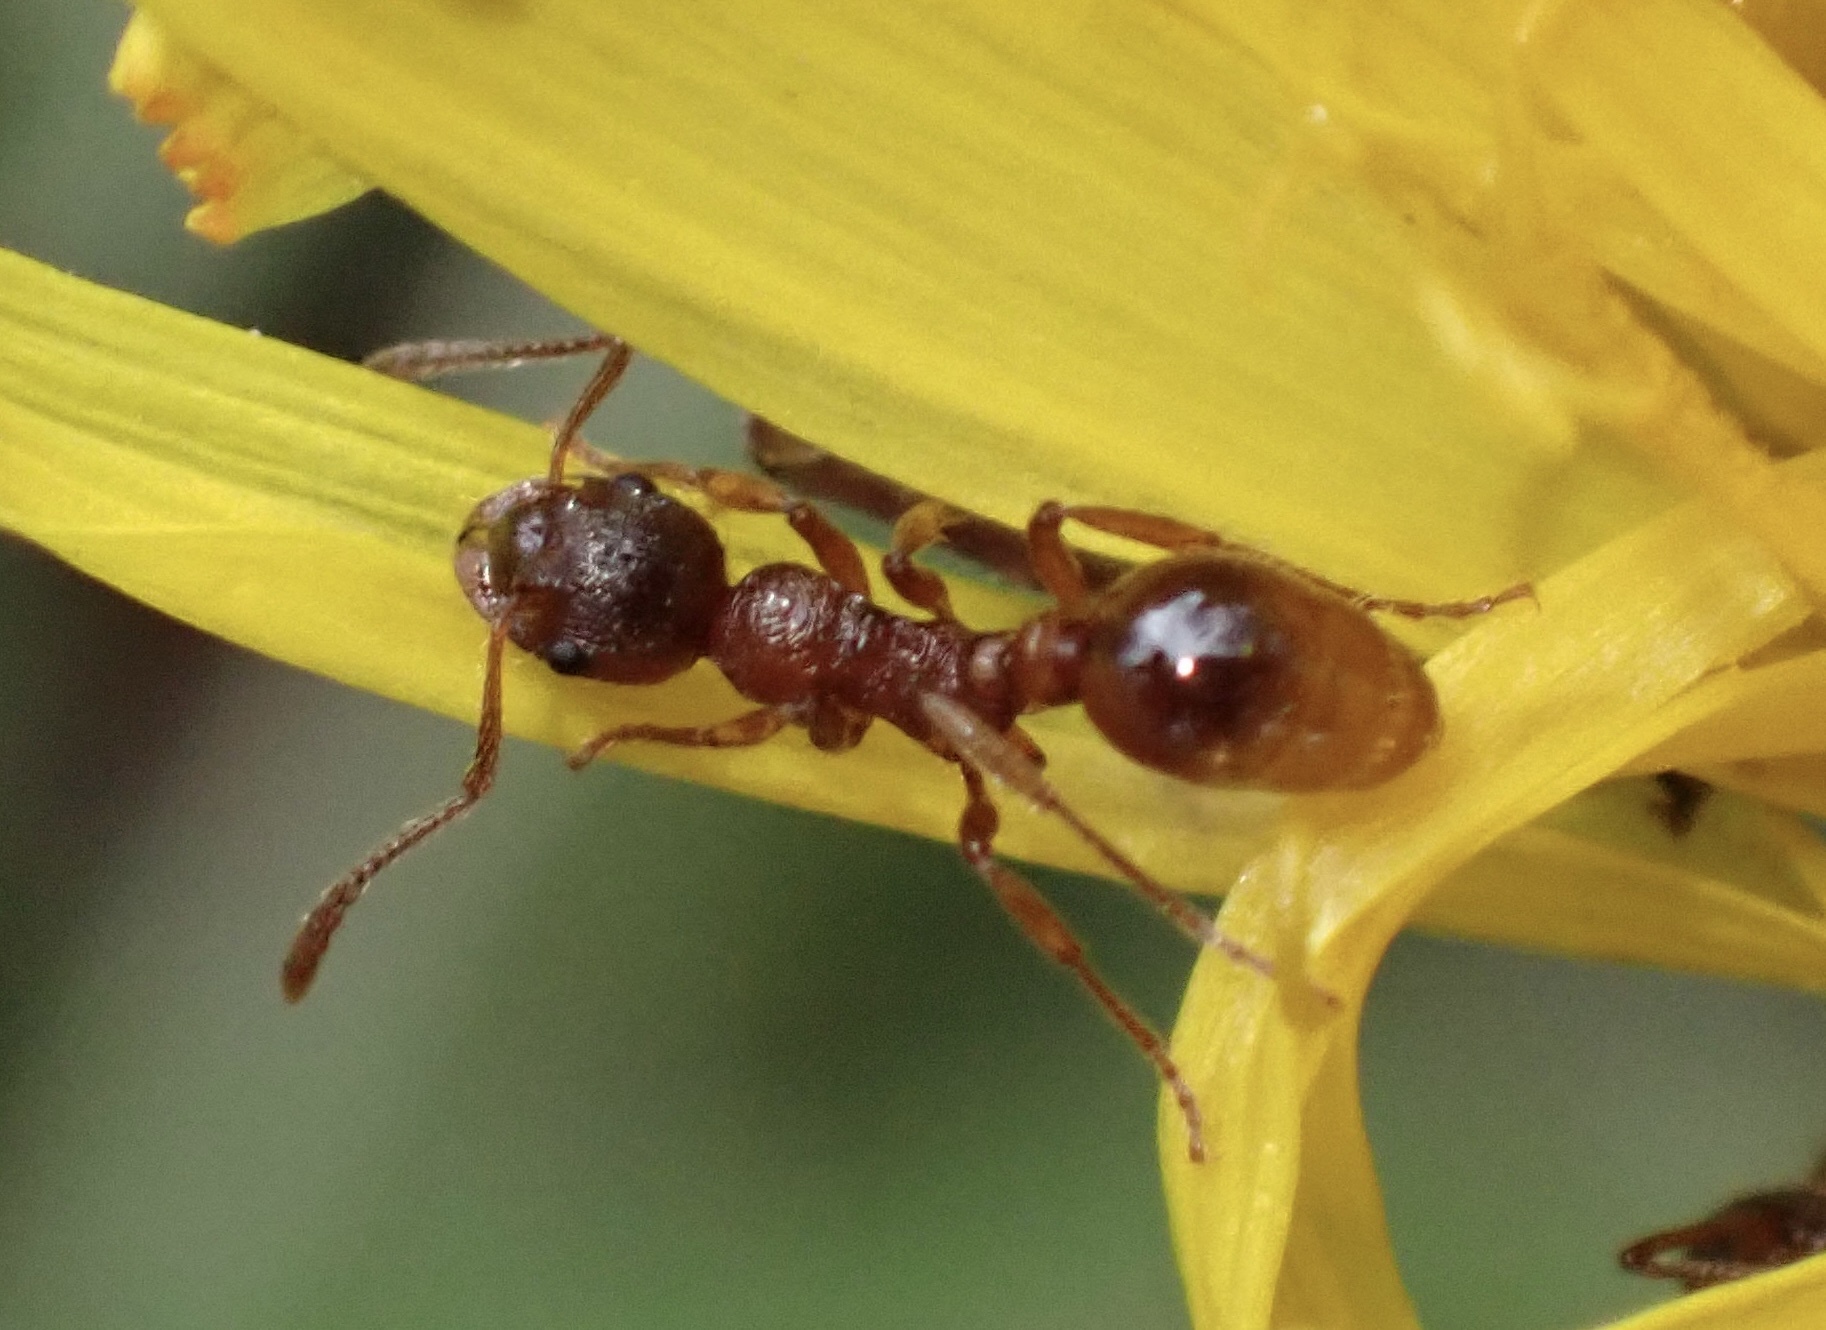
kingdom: Animalia
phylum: Arthropoda
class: Insecta
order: Hymenoptera
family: Formicidae
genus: Myrmica
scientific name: Myrmica rubra
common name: European fire ant
